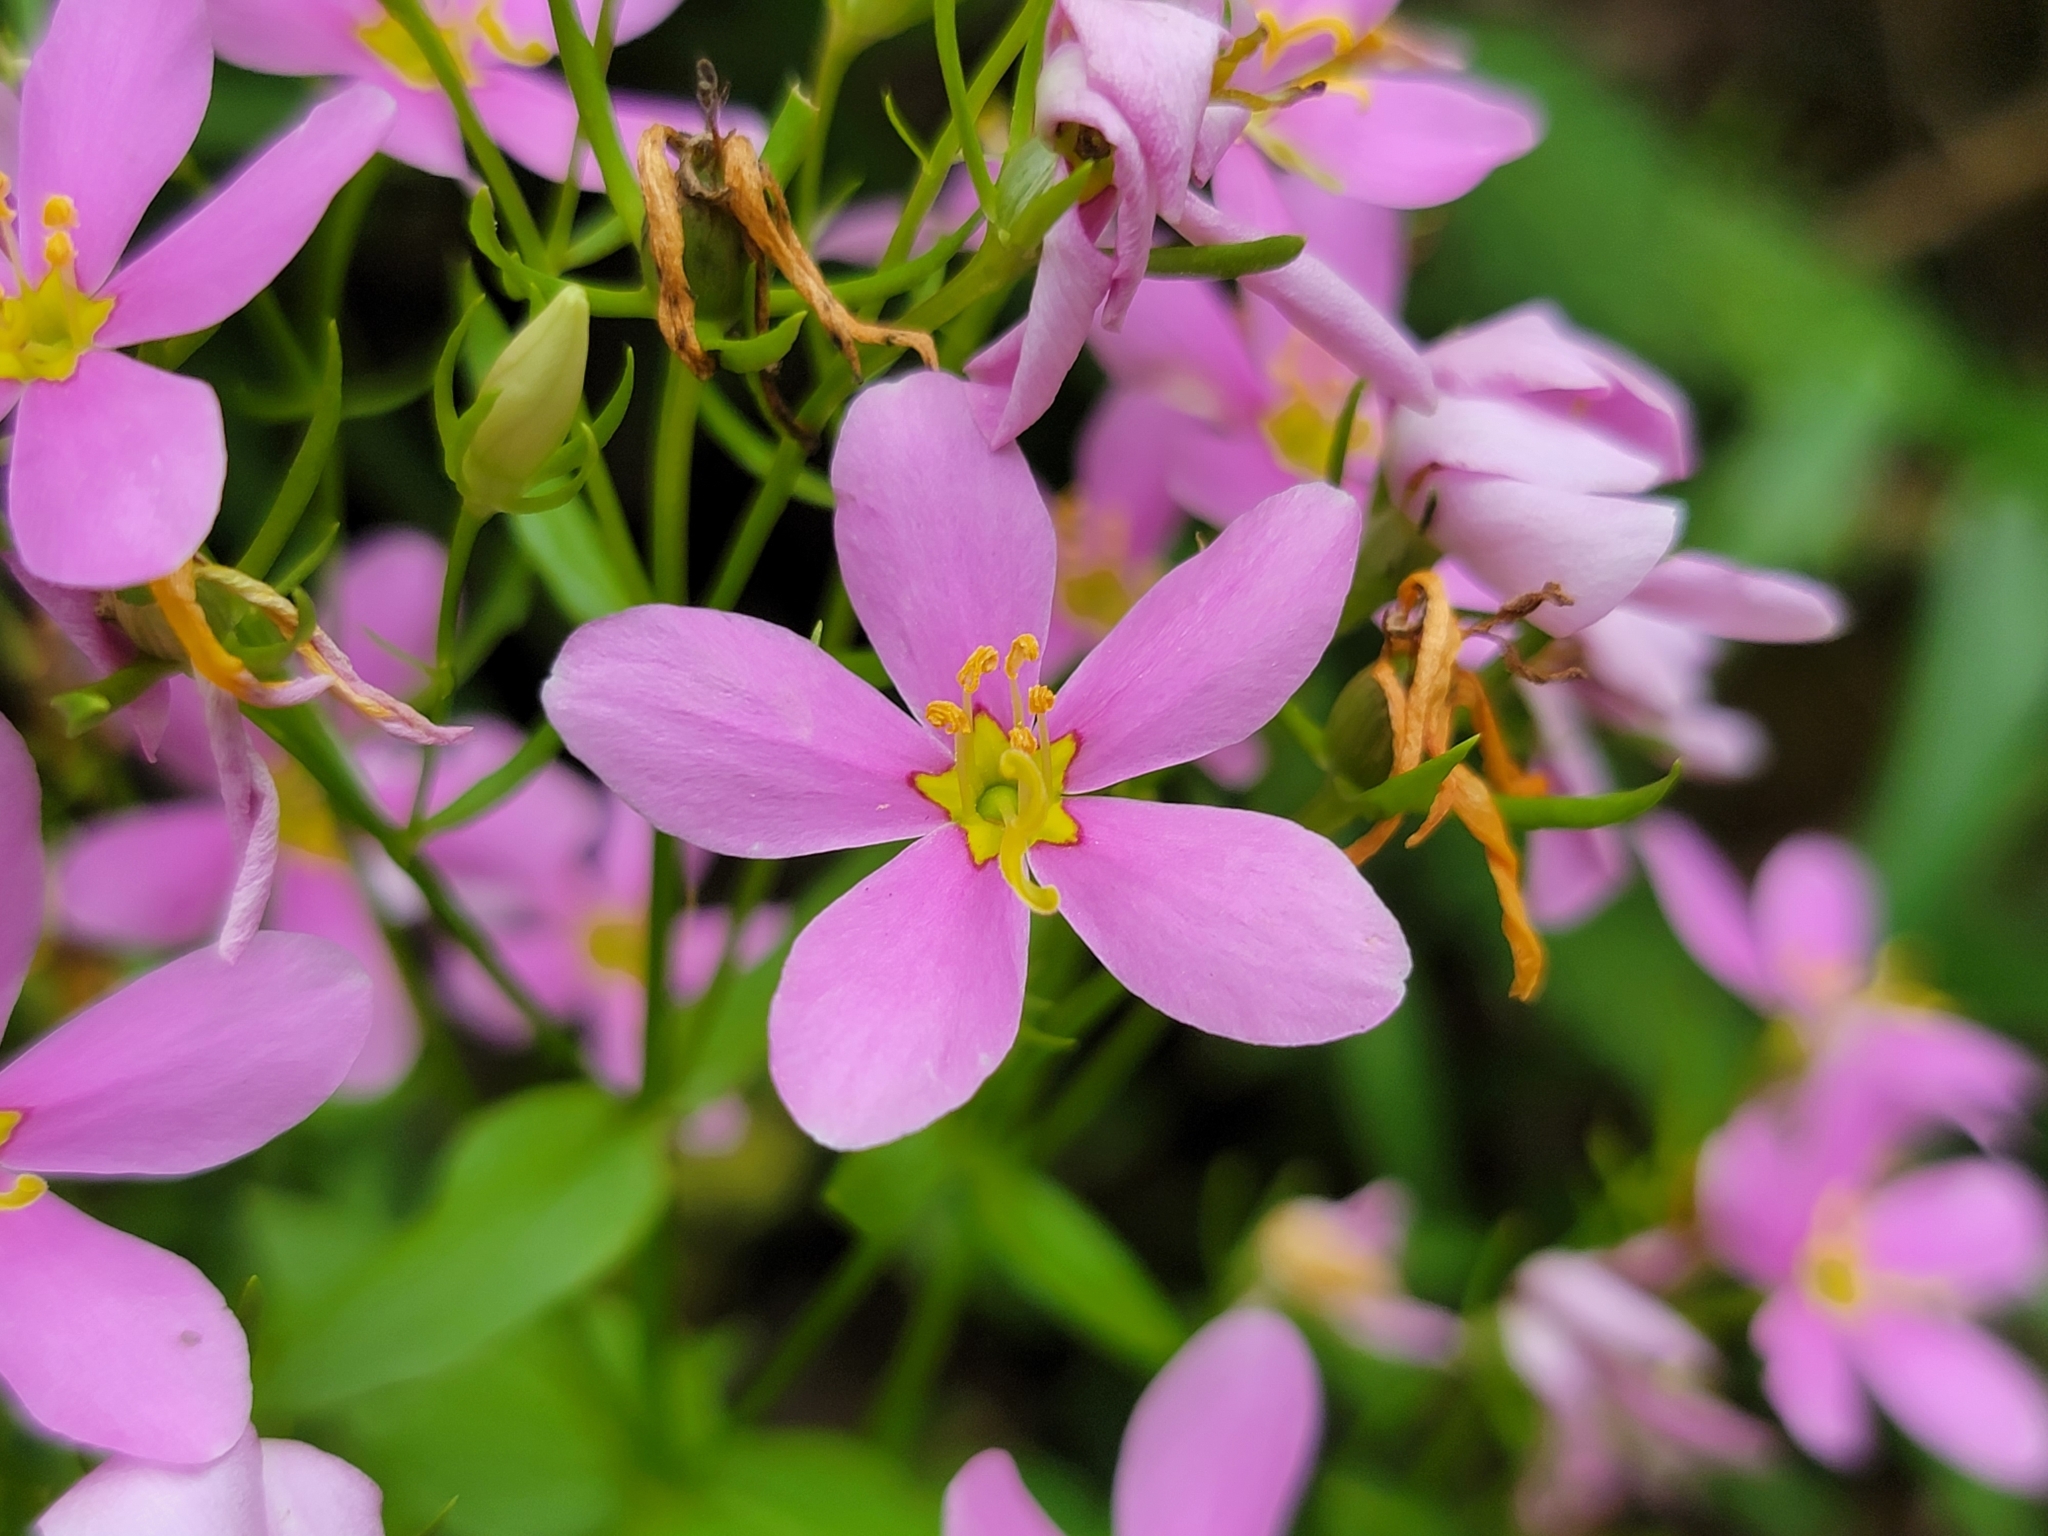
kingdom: Plantae
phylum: Tracheophyta
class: Magnoliopsida
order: Gentianales
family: Gentianaceae
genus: Sabatia
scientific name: Sabatia angularis
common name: Rose-pink
